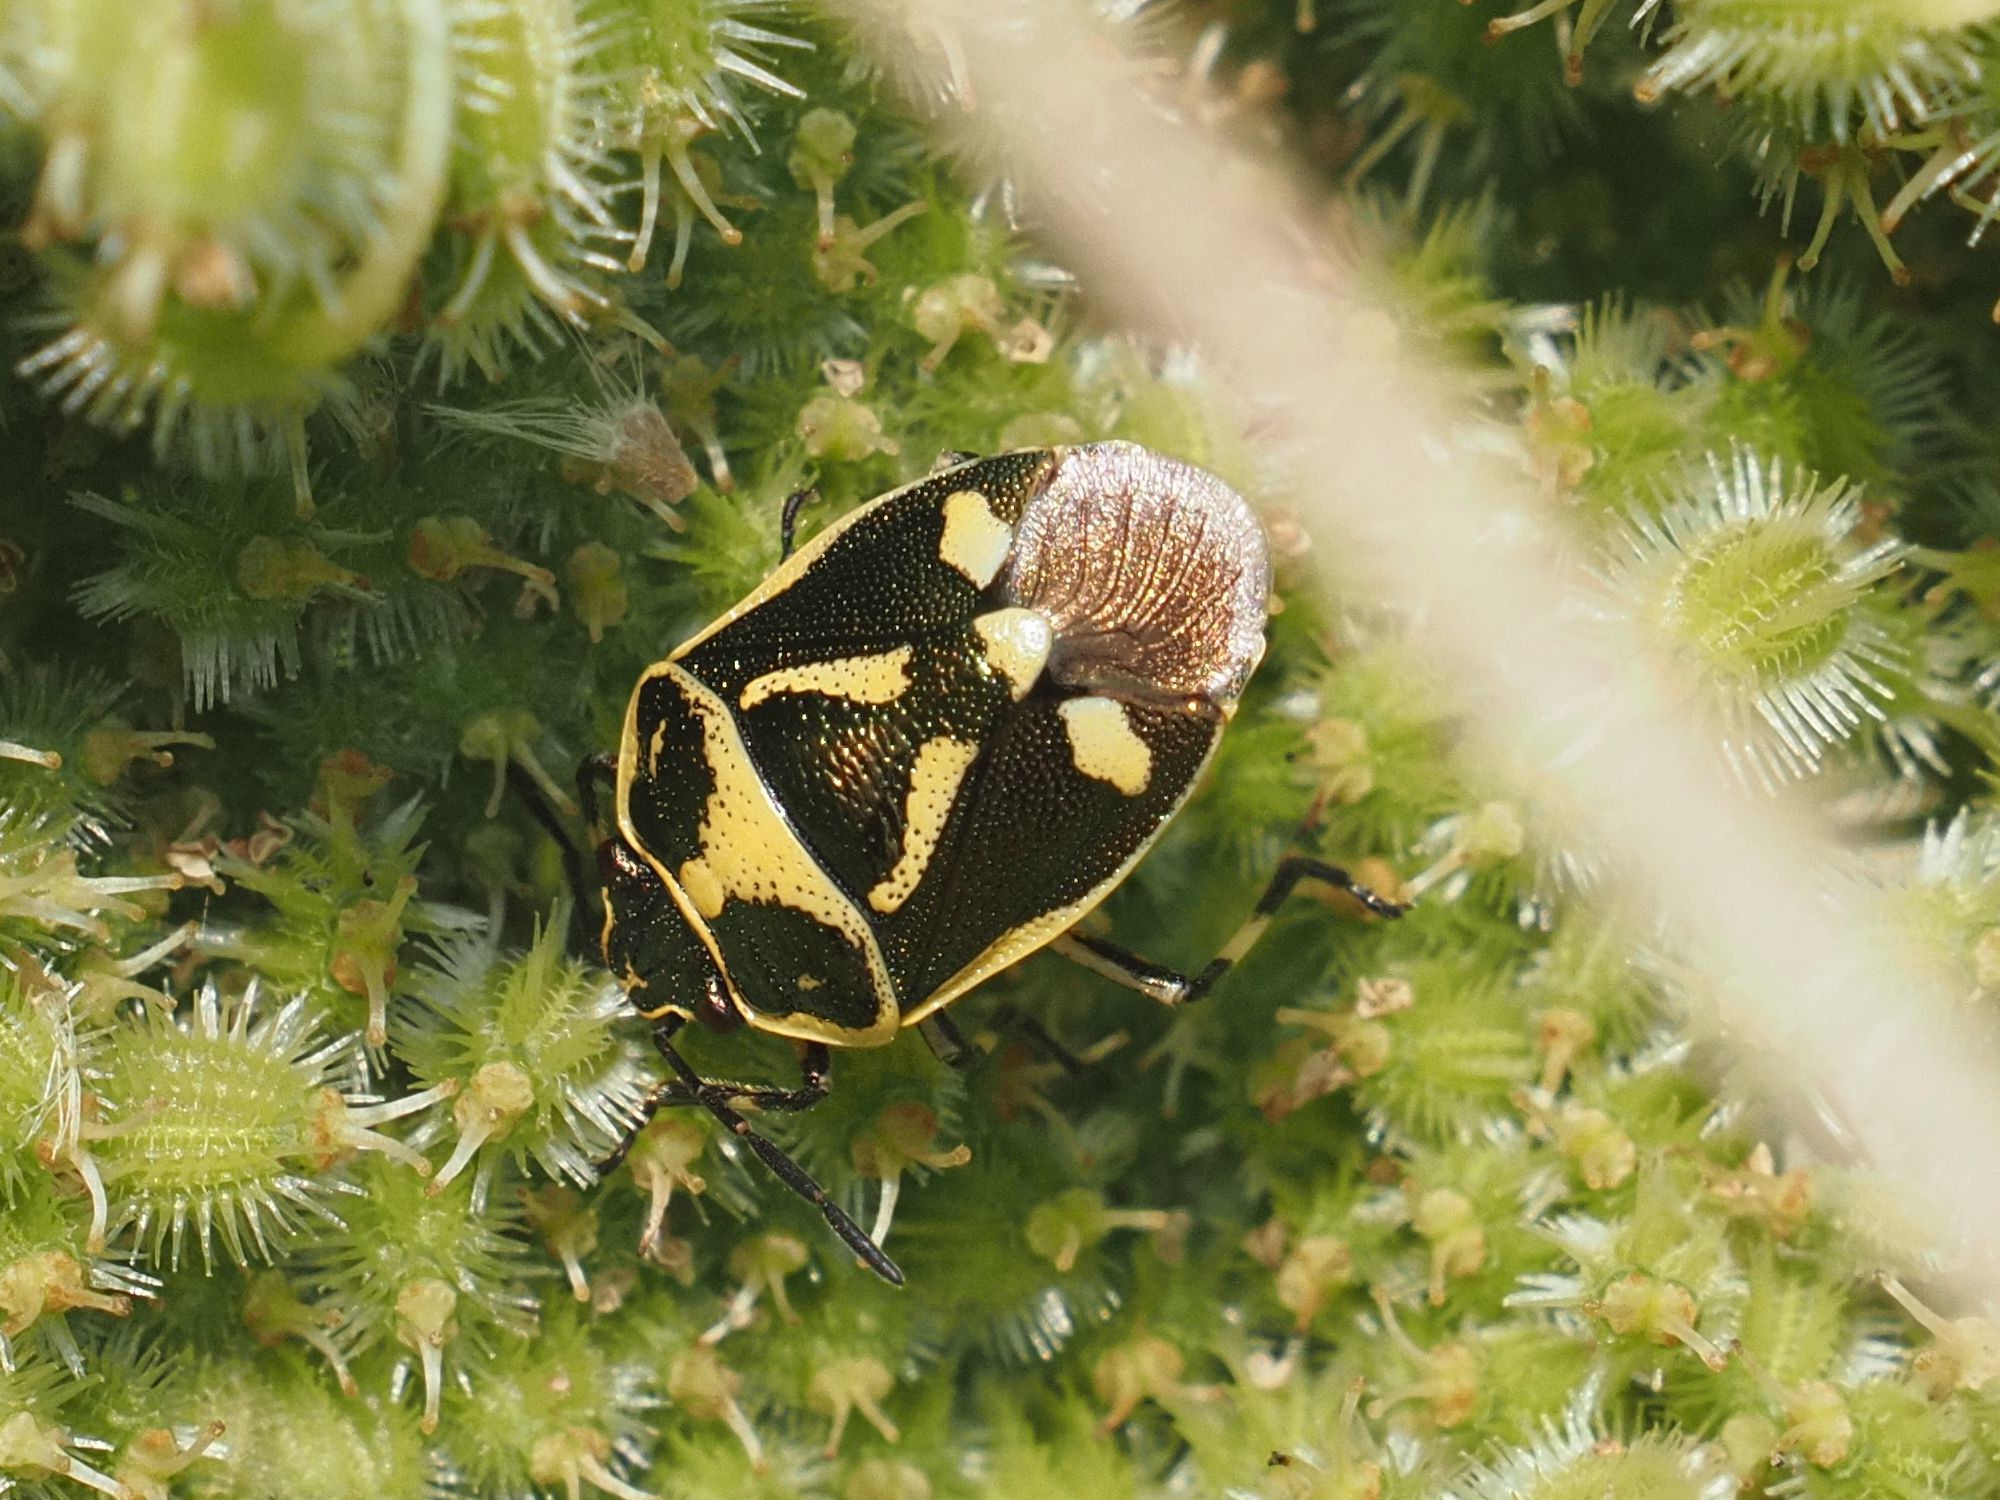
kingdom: Animalia
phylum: Arthropoda
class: Insecta
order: Hemiptera
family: Pentatomidae
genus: Eurydema
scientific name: Eurydema oleracea
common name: Cabbage bug
